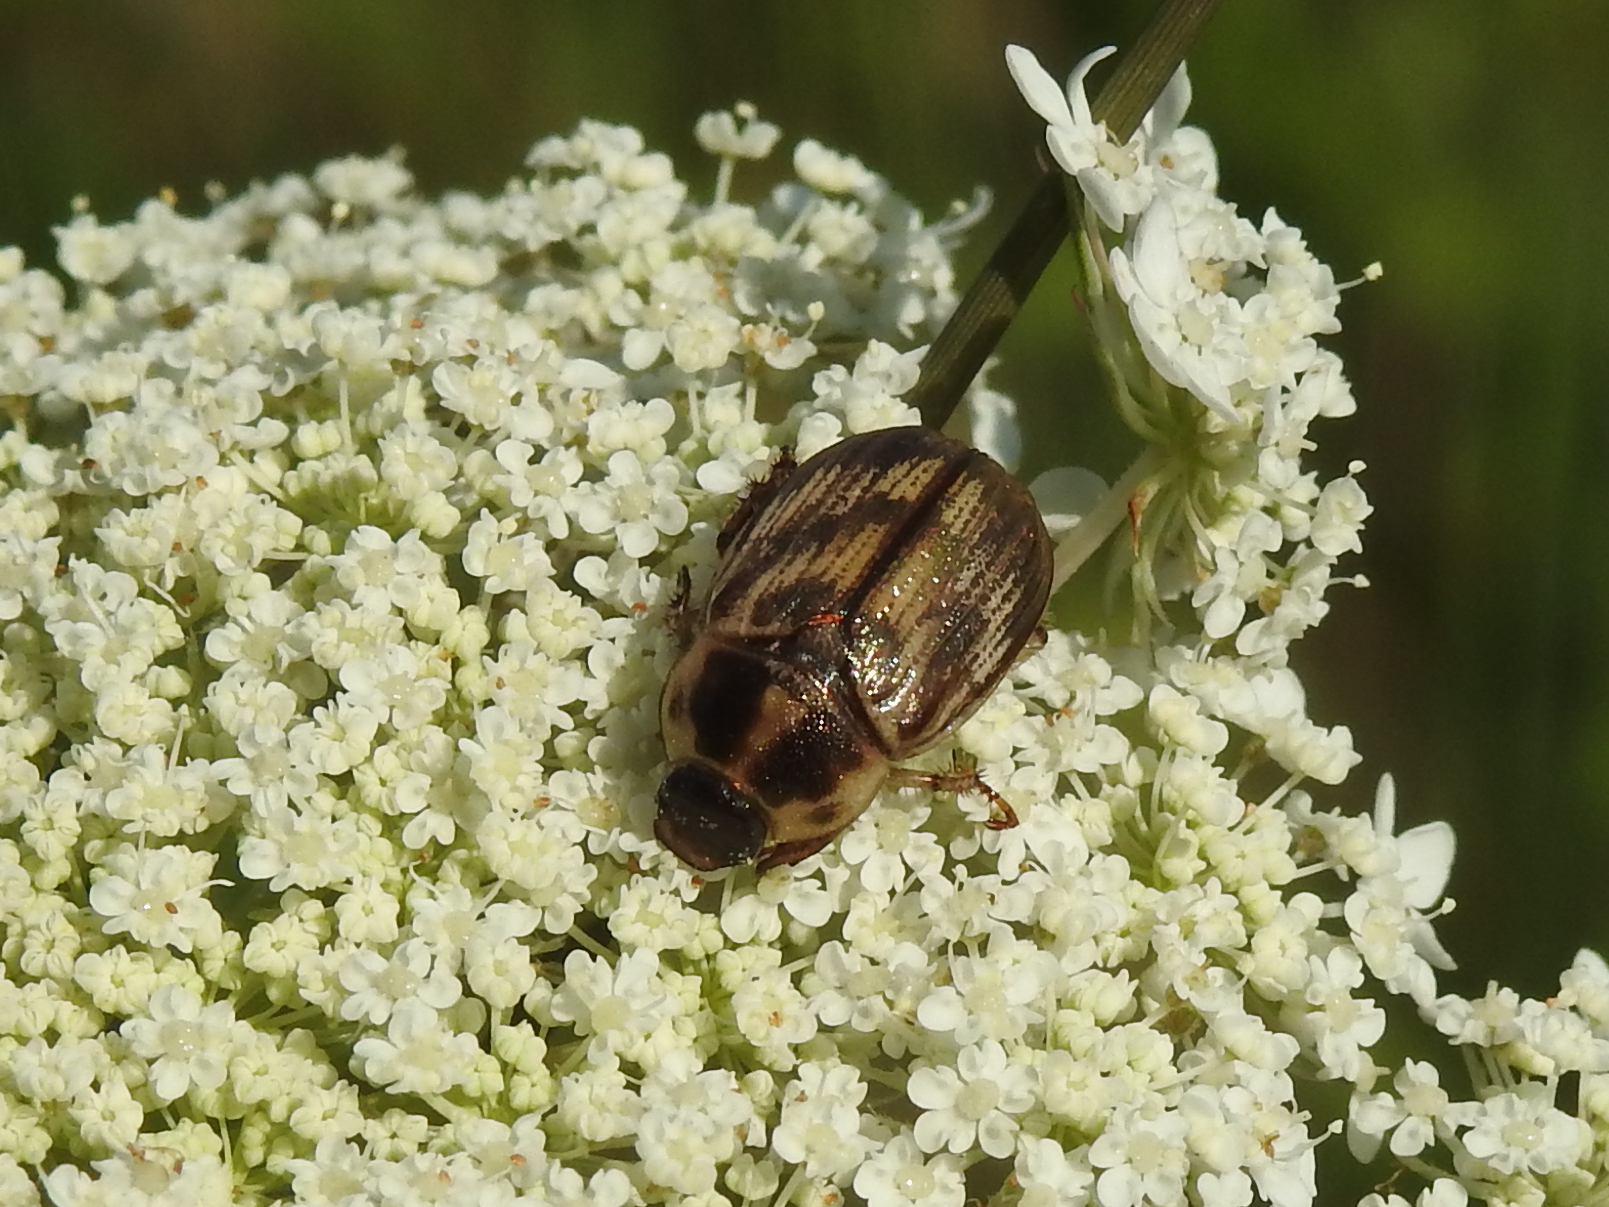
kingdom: Animalia
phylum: Arthropoda
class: Insecta
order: Coleoptera
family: Scarabaeidae
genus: Exomala
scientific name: Exomala orientalis
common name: Oriental beetle
